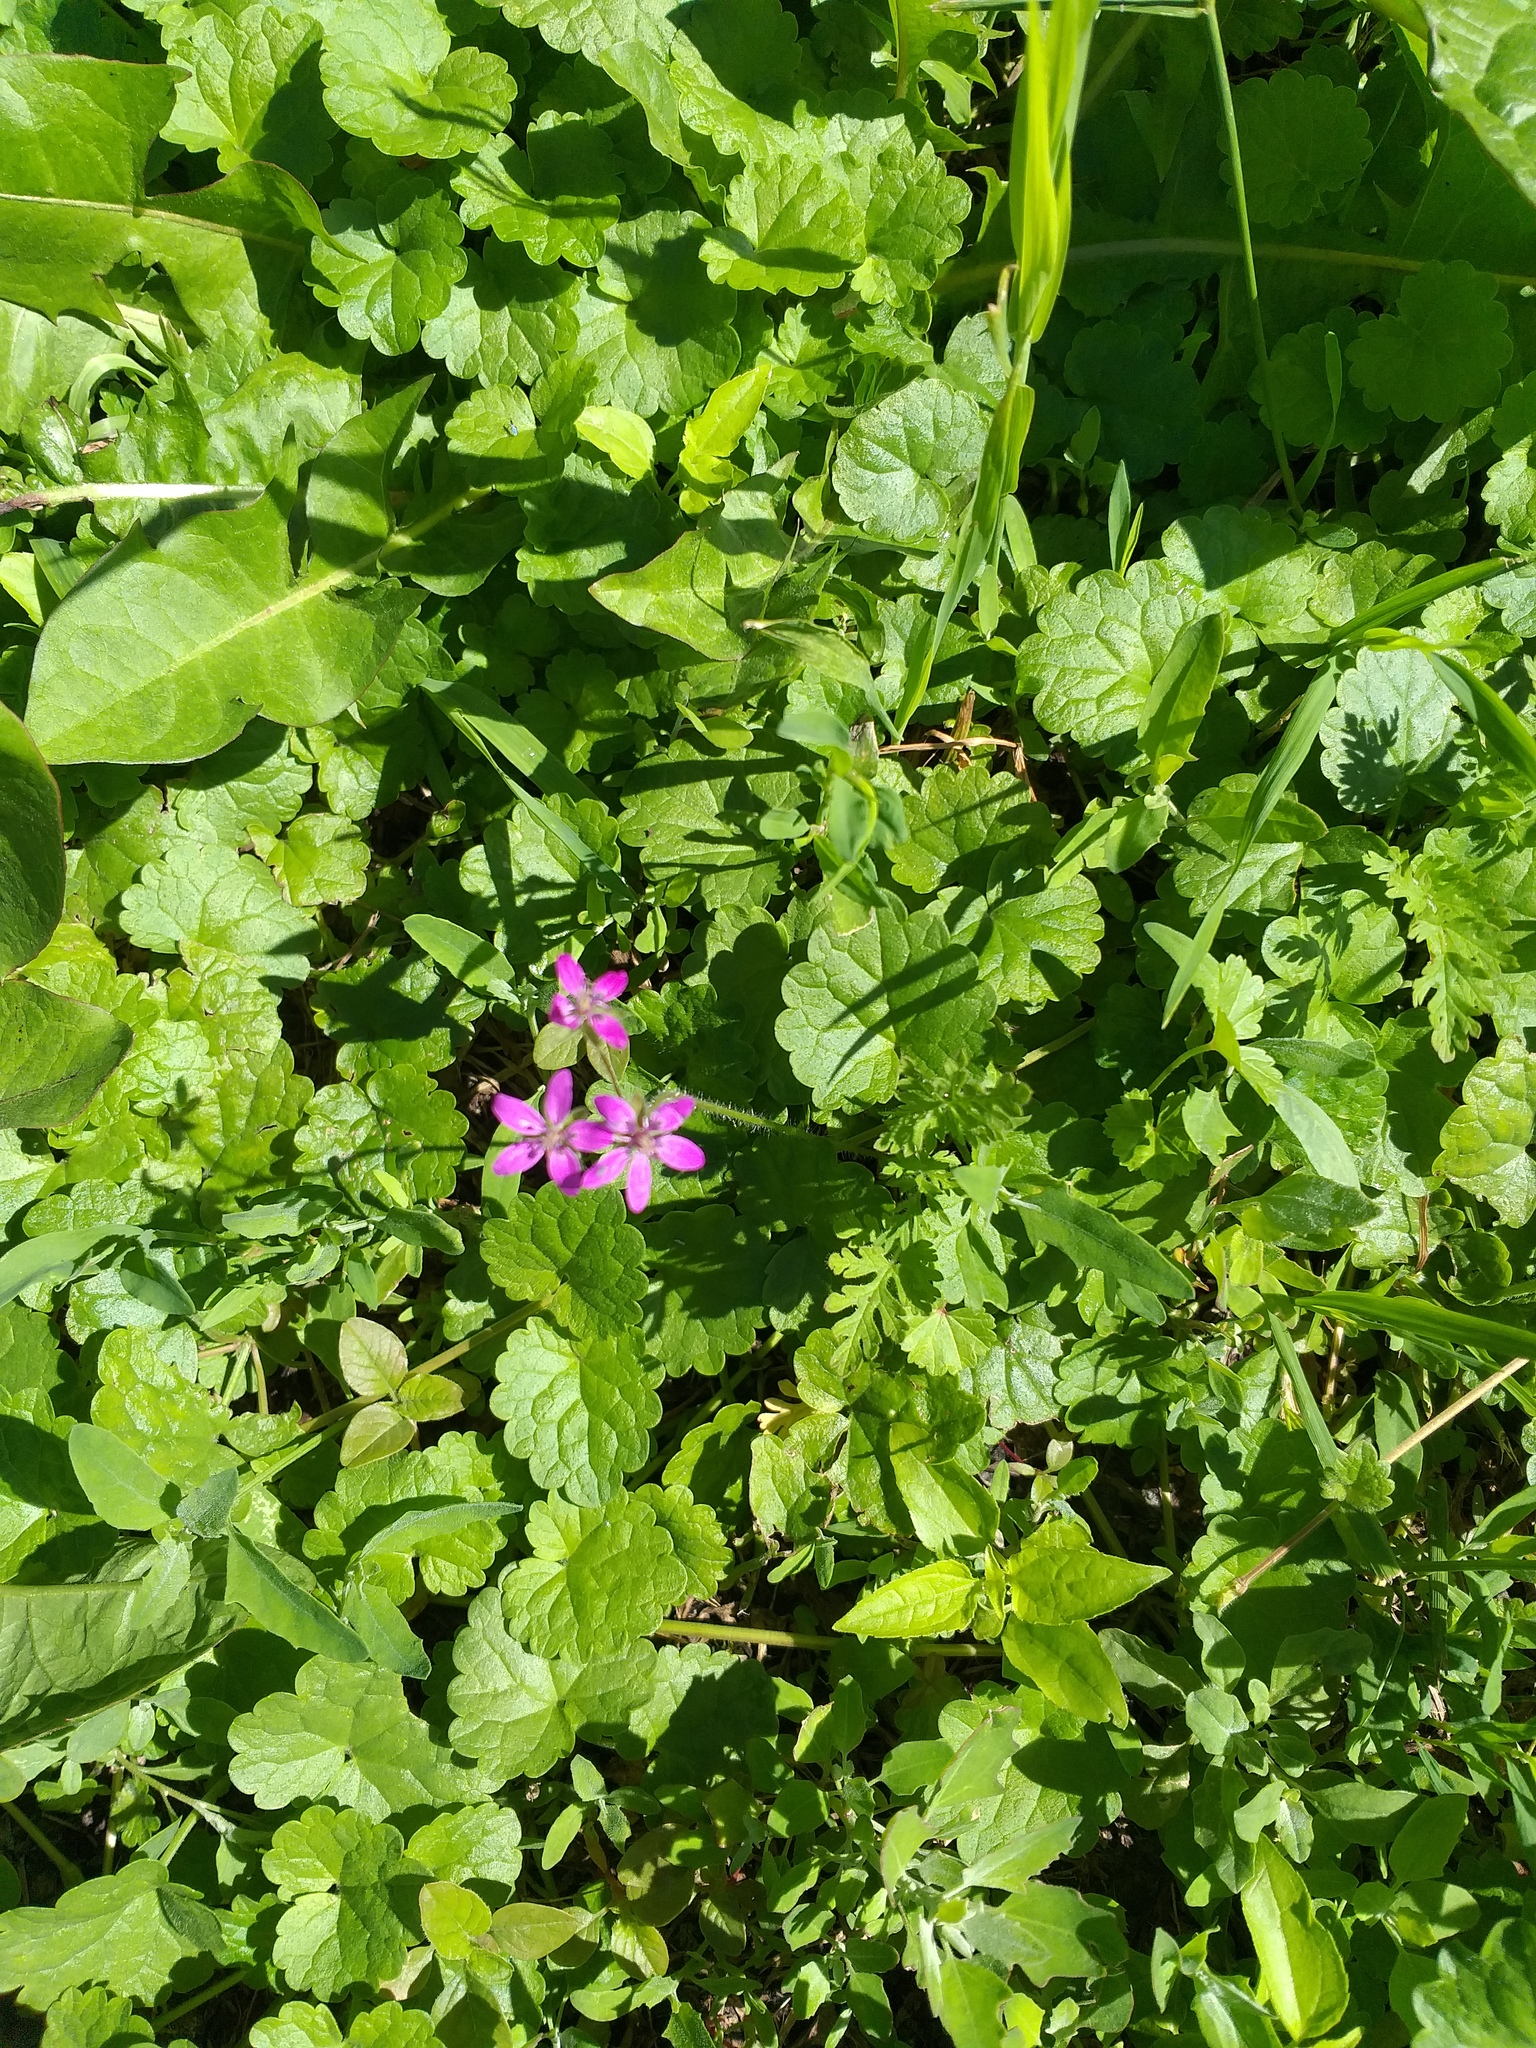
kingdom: Plantae
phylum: Tracheophyta
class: Magnoliopsida
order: Geraniales
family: Geraniaceae
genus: Erodium
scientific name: Erodium cicutarium
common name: Common stork's-bill
